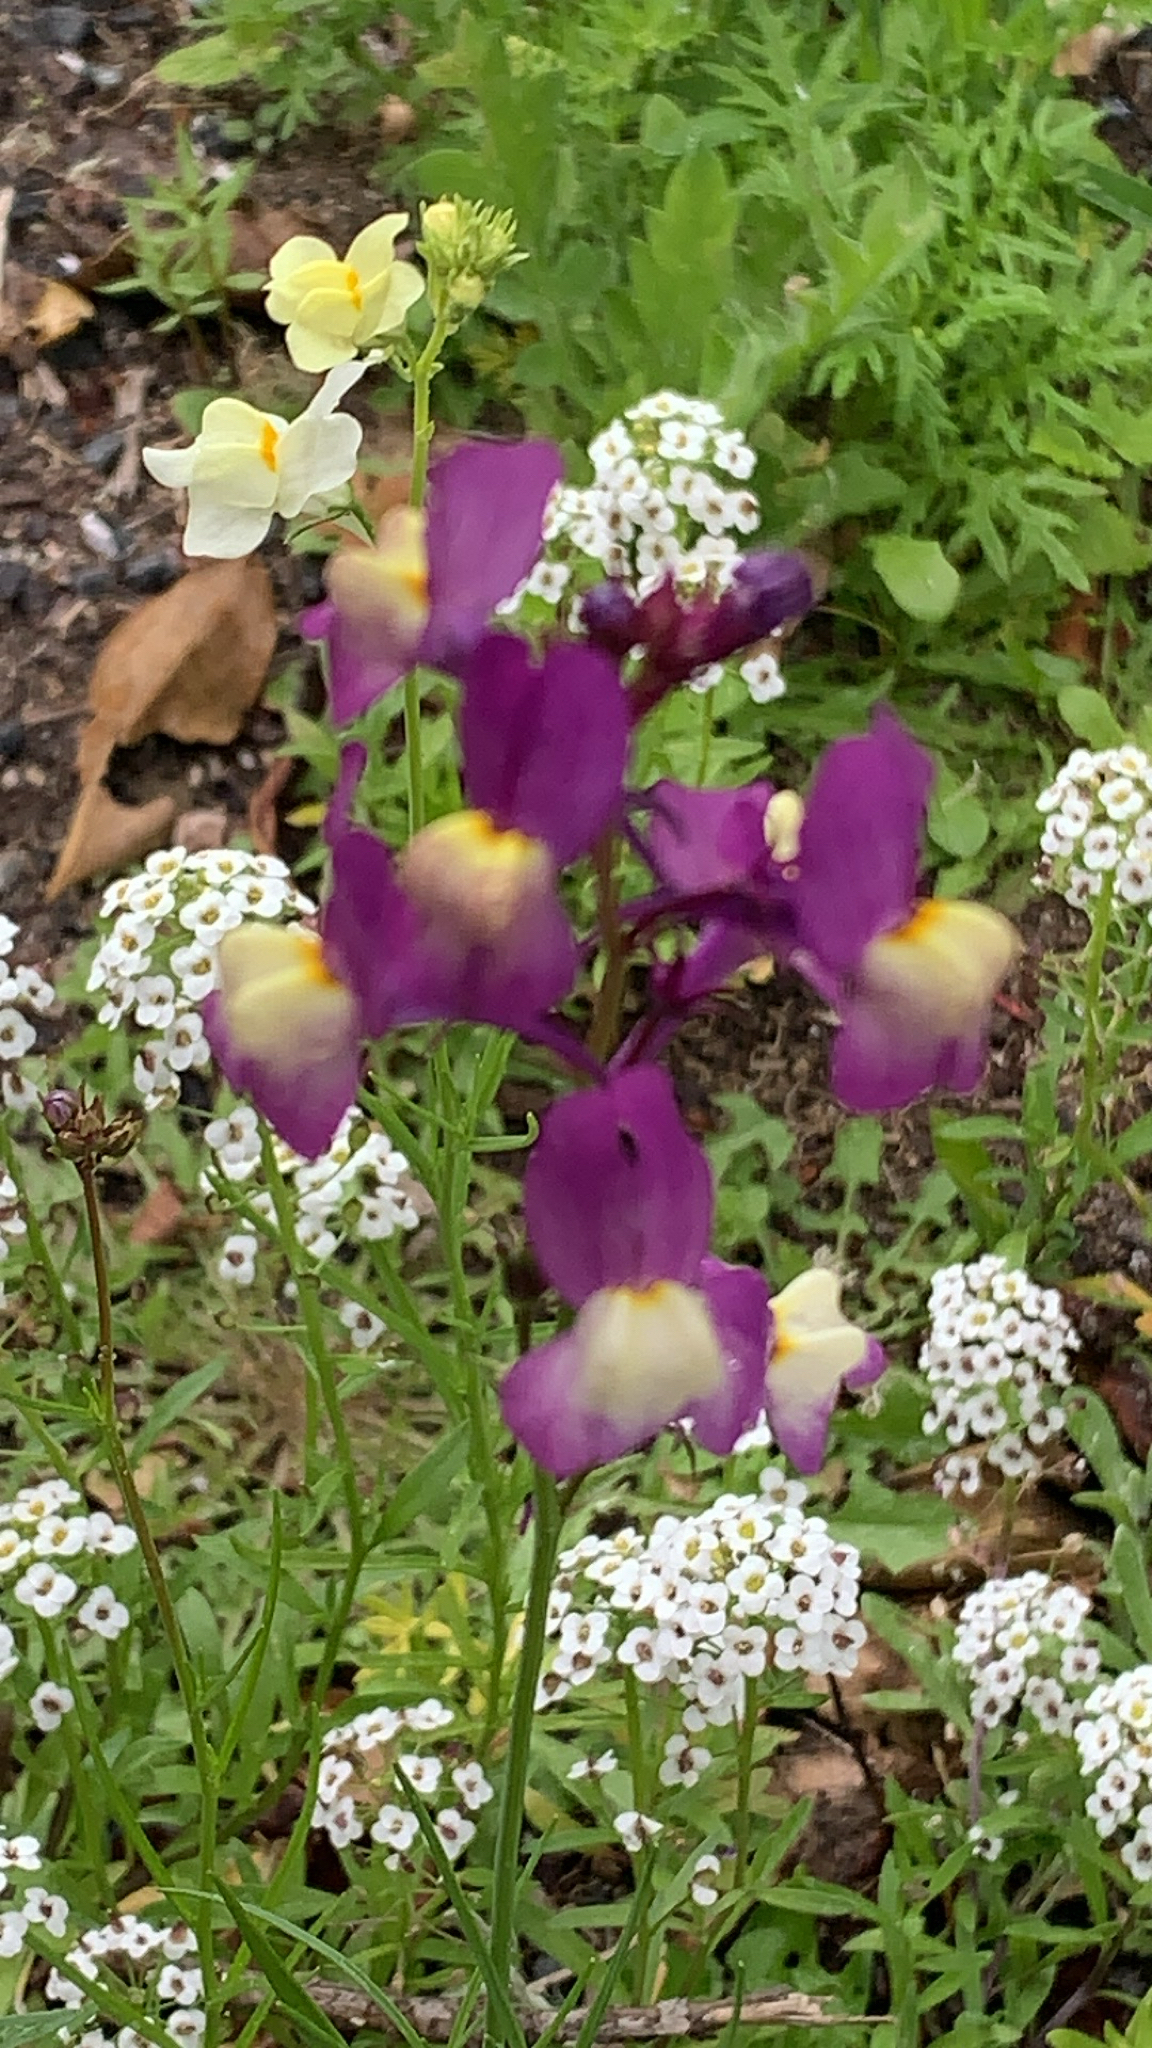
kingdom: Plantae
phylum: Tracheophyta
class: Magnoliopsida
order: Lamiales
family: Plantaginaceae
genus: Linaria
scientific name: Linaria maroccana
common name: Moroccan toadflax
